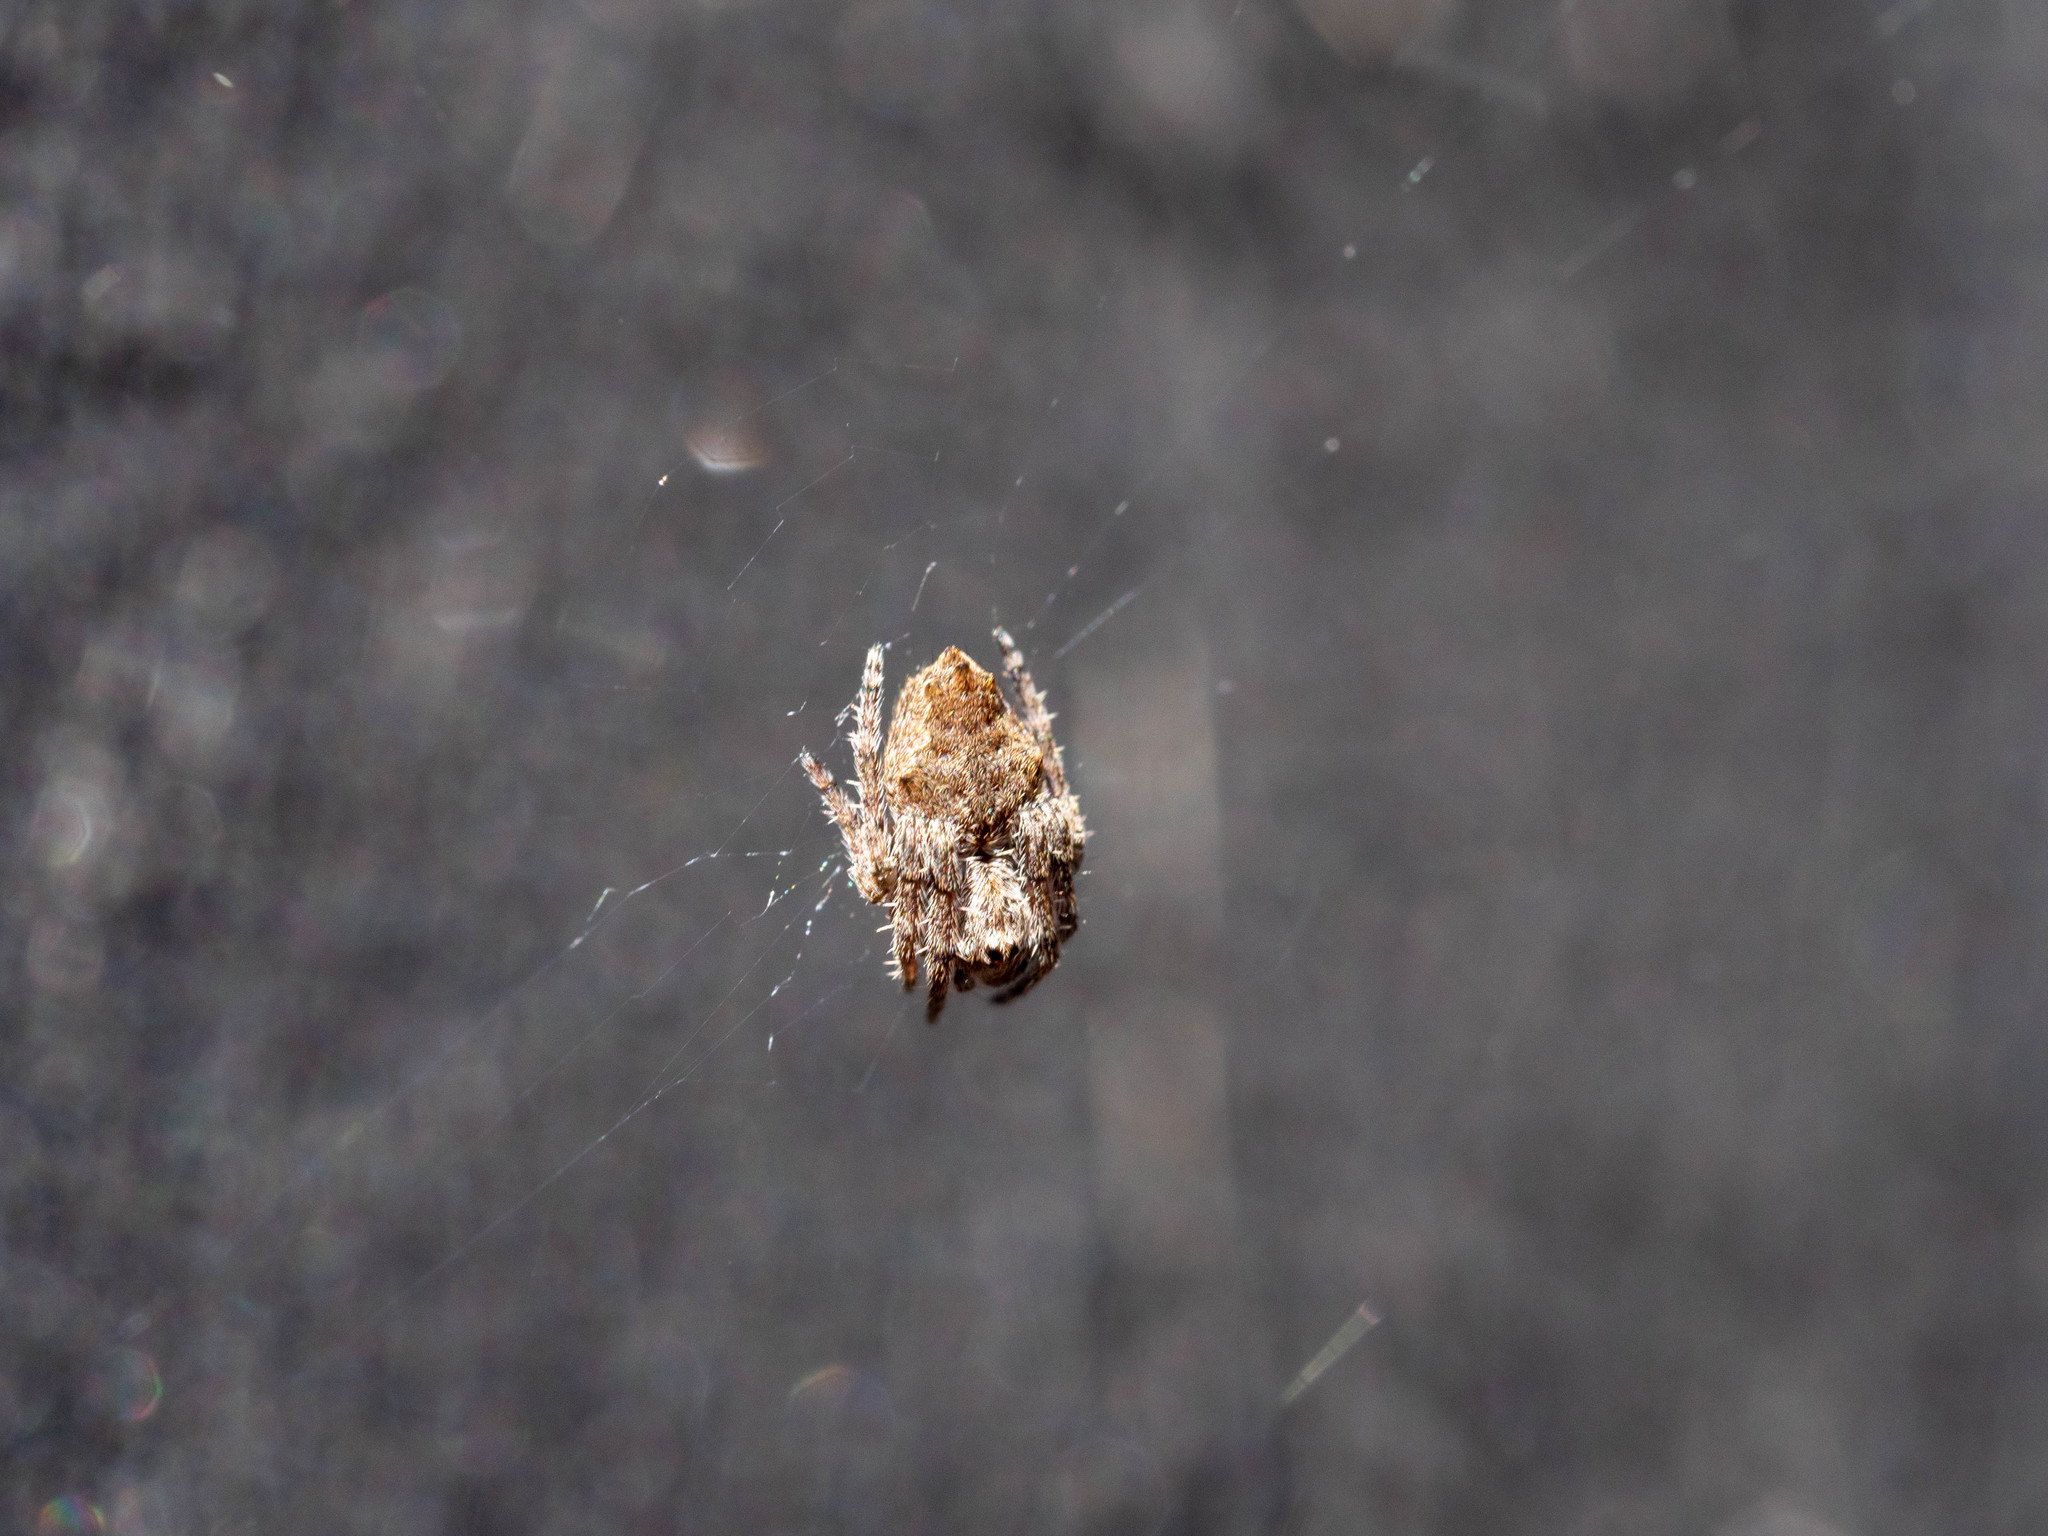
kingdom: Animalia
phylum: Arthropoda
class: Arachnida
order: Araneae
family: Araneidae
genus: Eriophora
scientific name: Eriophora pustulosa
